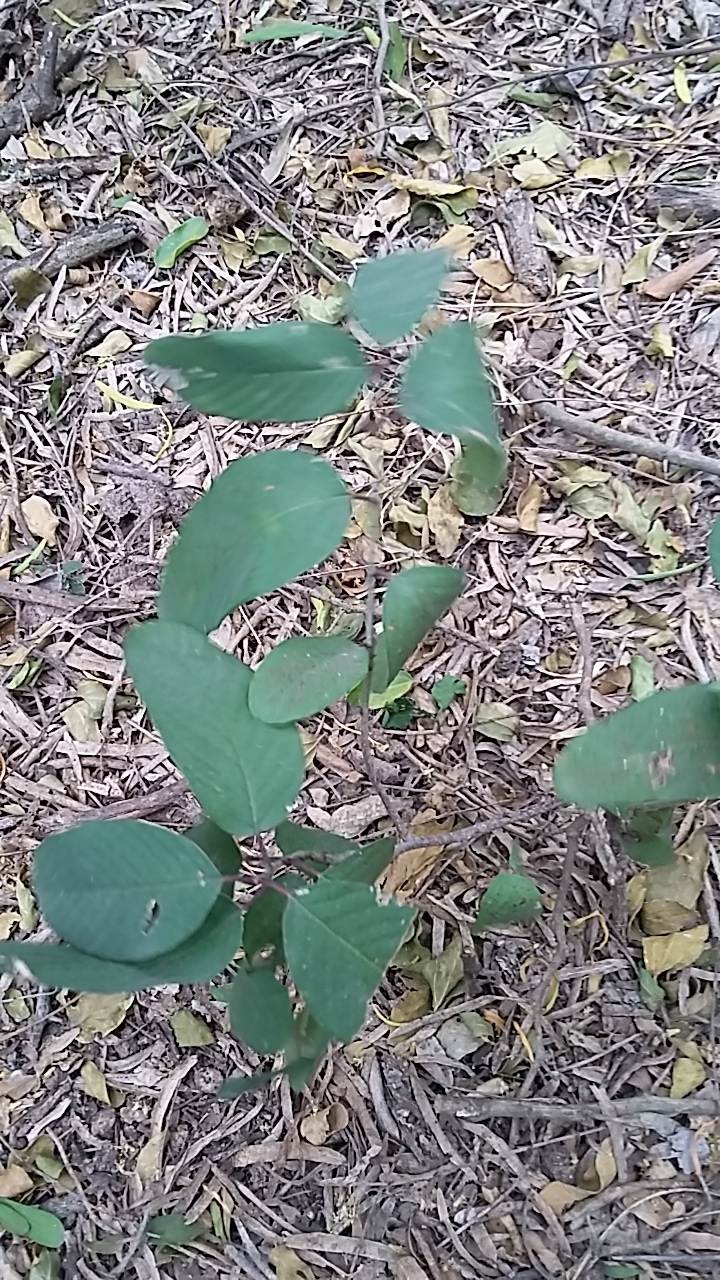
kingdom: Plantae
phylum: Tracheophyta
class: Magnoliopsida
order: Rosales
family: Rhamnaceae
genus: Karwinskia
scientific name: Karwinskia humboldtiana
